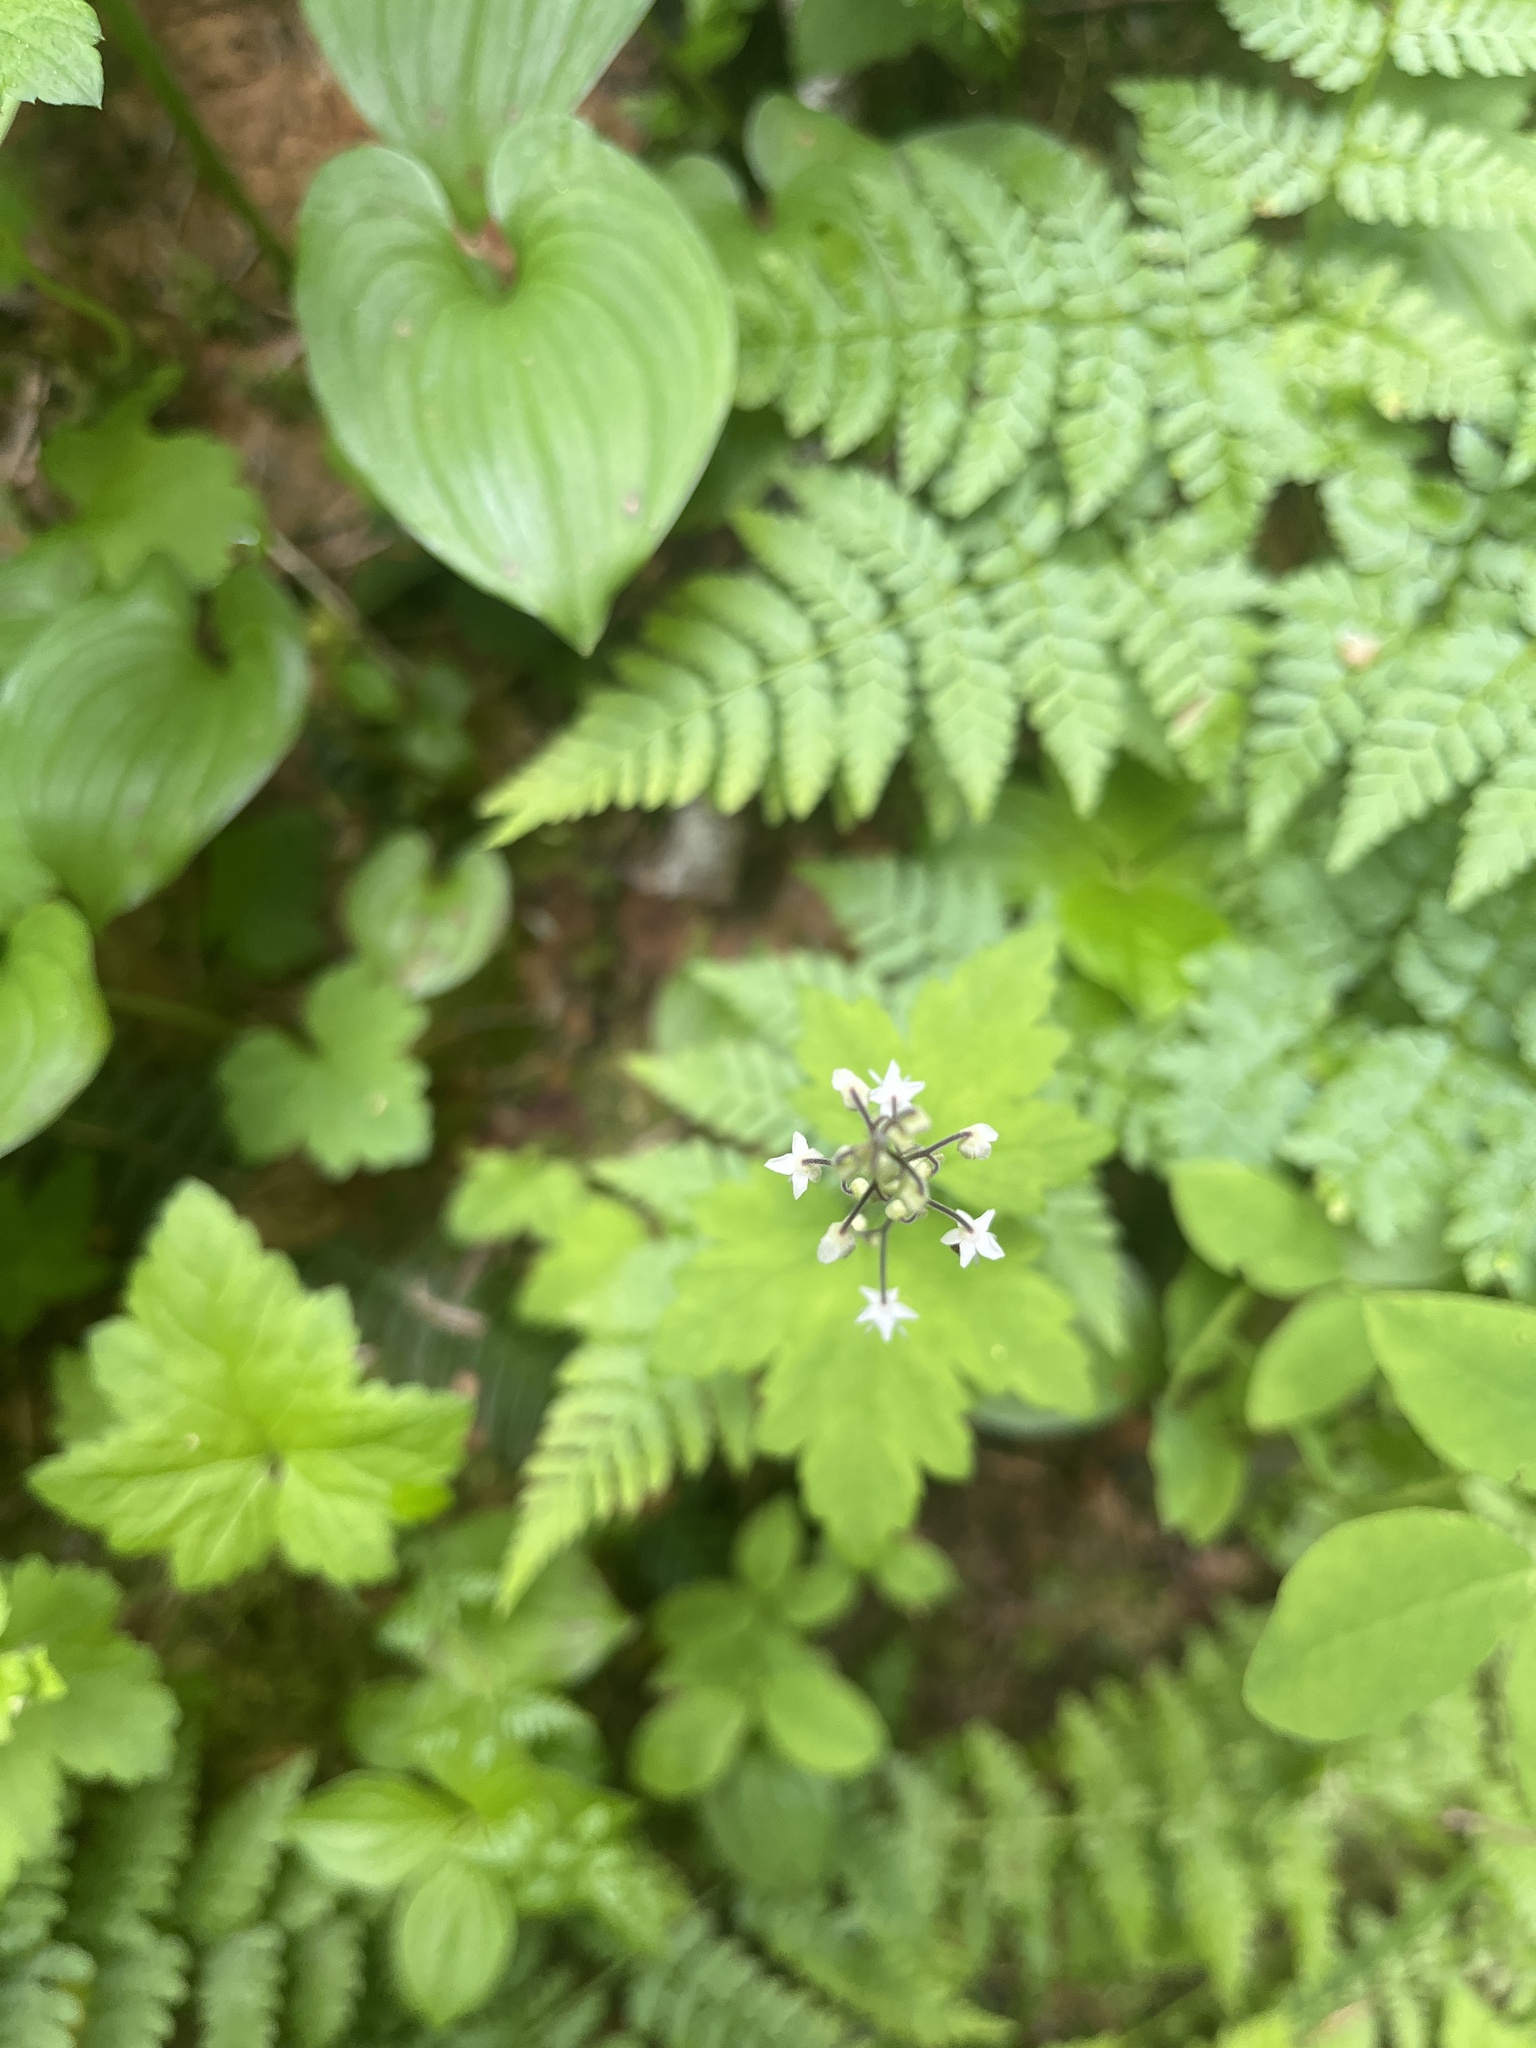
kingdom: Plantae
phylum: Tracheophyta
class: Magnoliopsida
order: Saxifragales
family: Saxifragaceae
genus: Tiarella
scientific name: Tiarella trifoliata
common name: Sugar-scoop
